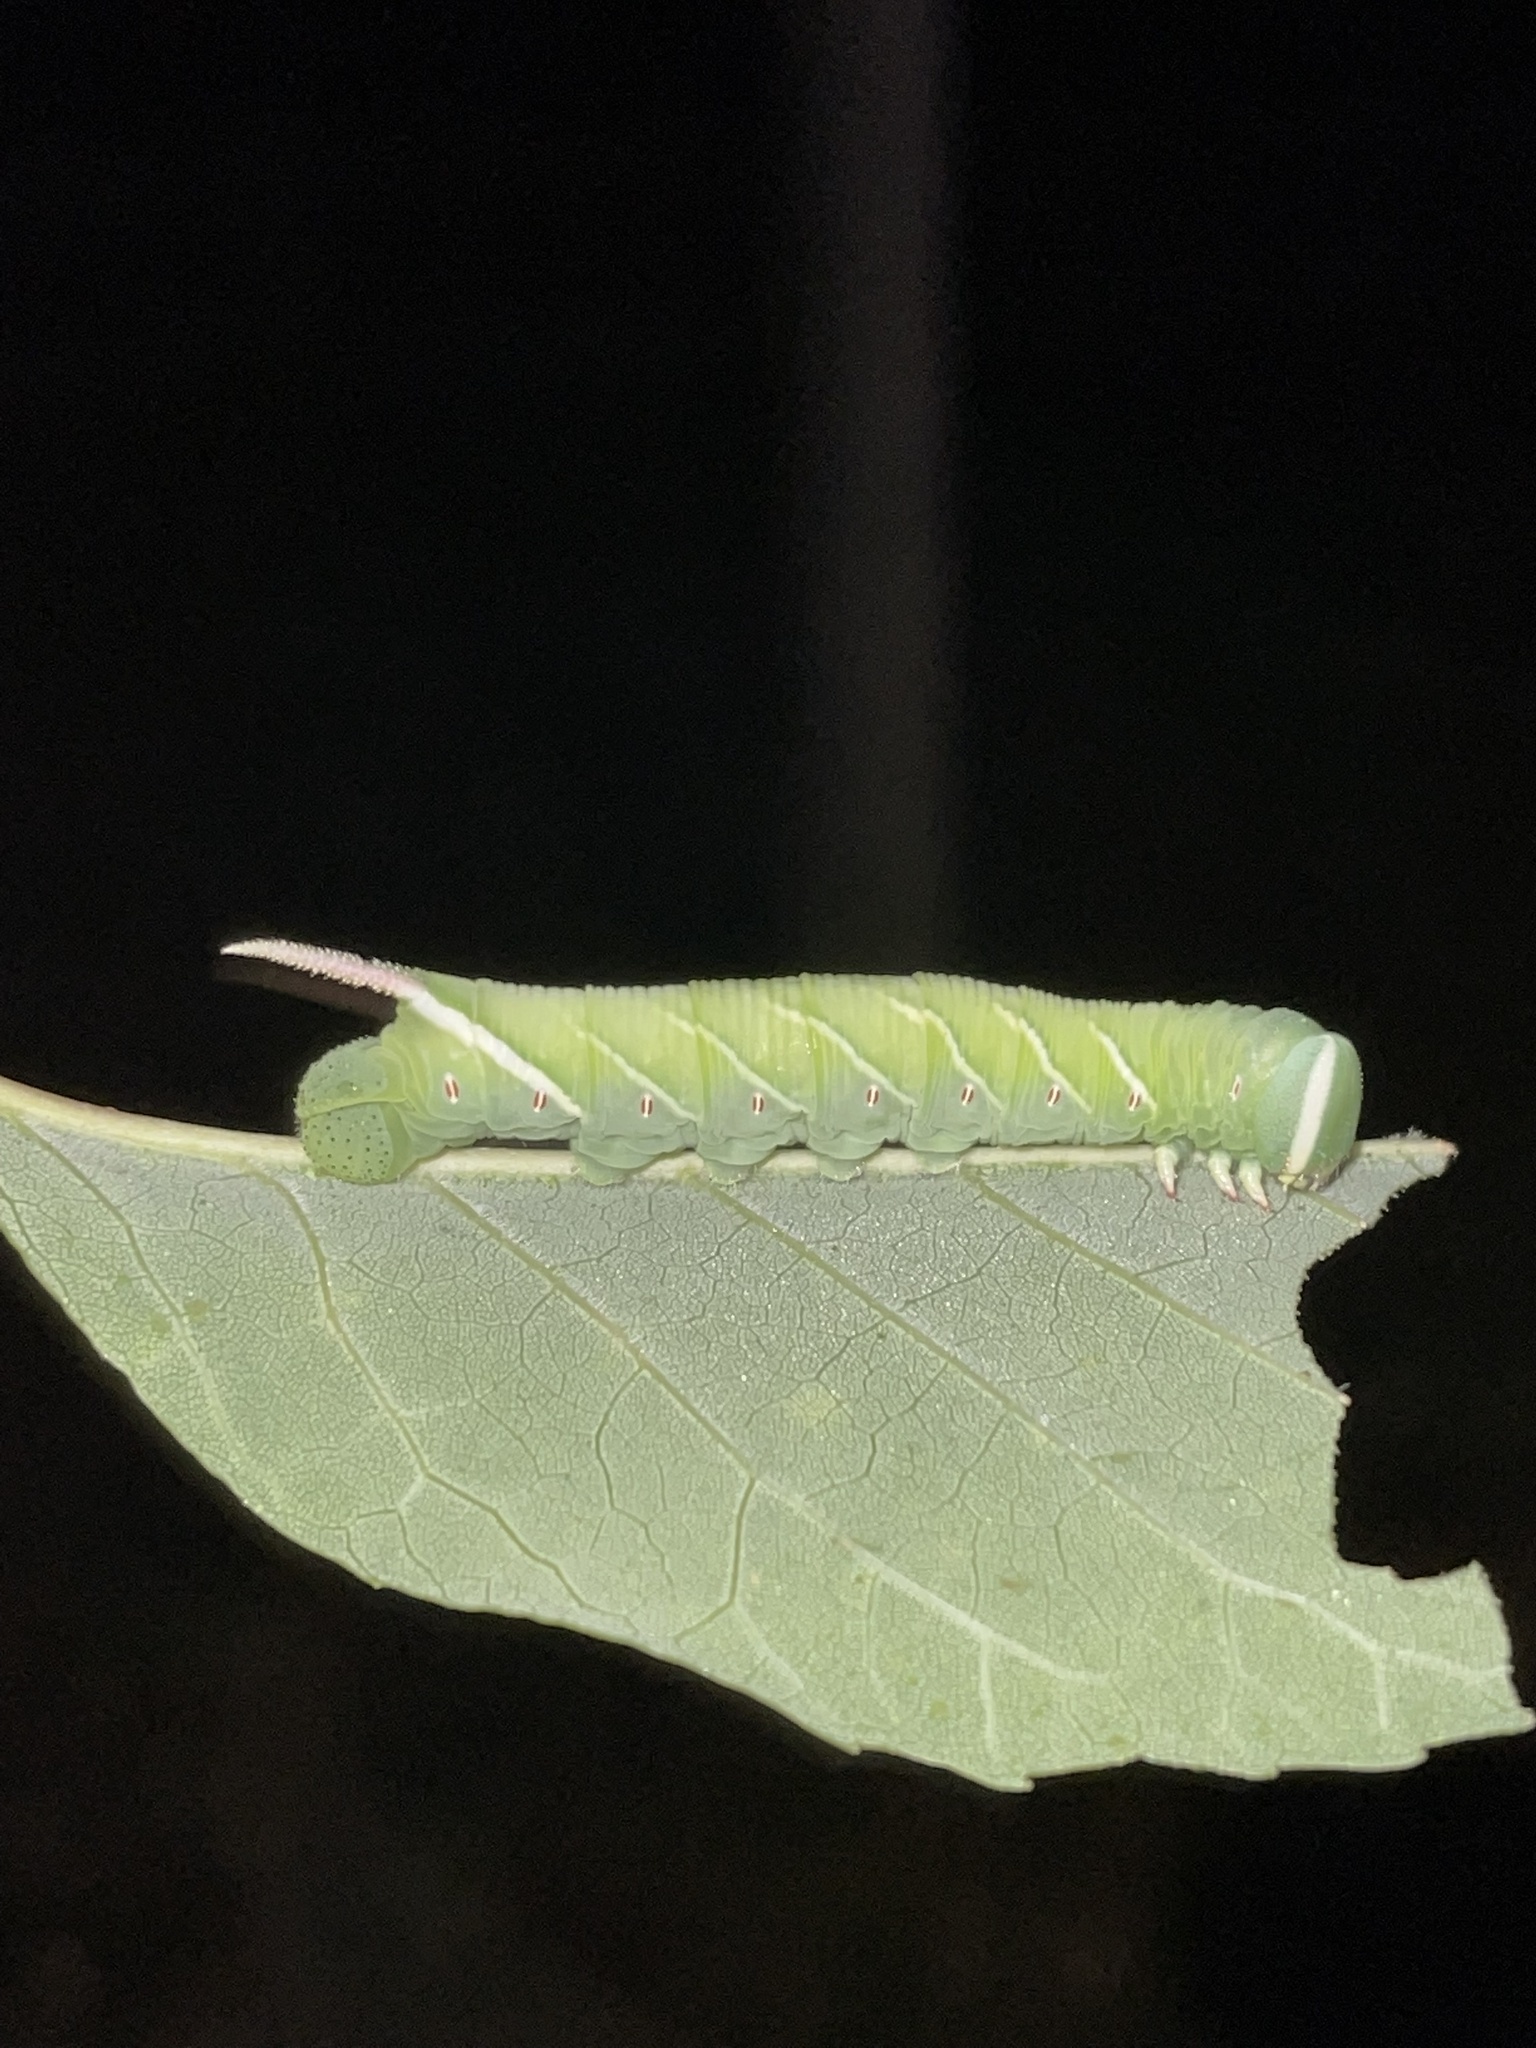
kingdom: Animalia
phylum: Arthropoda
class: Insecta
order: Lepidoptera
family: Sphingidae
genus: Ceratomia
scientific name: Ceratomia undulosa
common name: Waved sphinx
